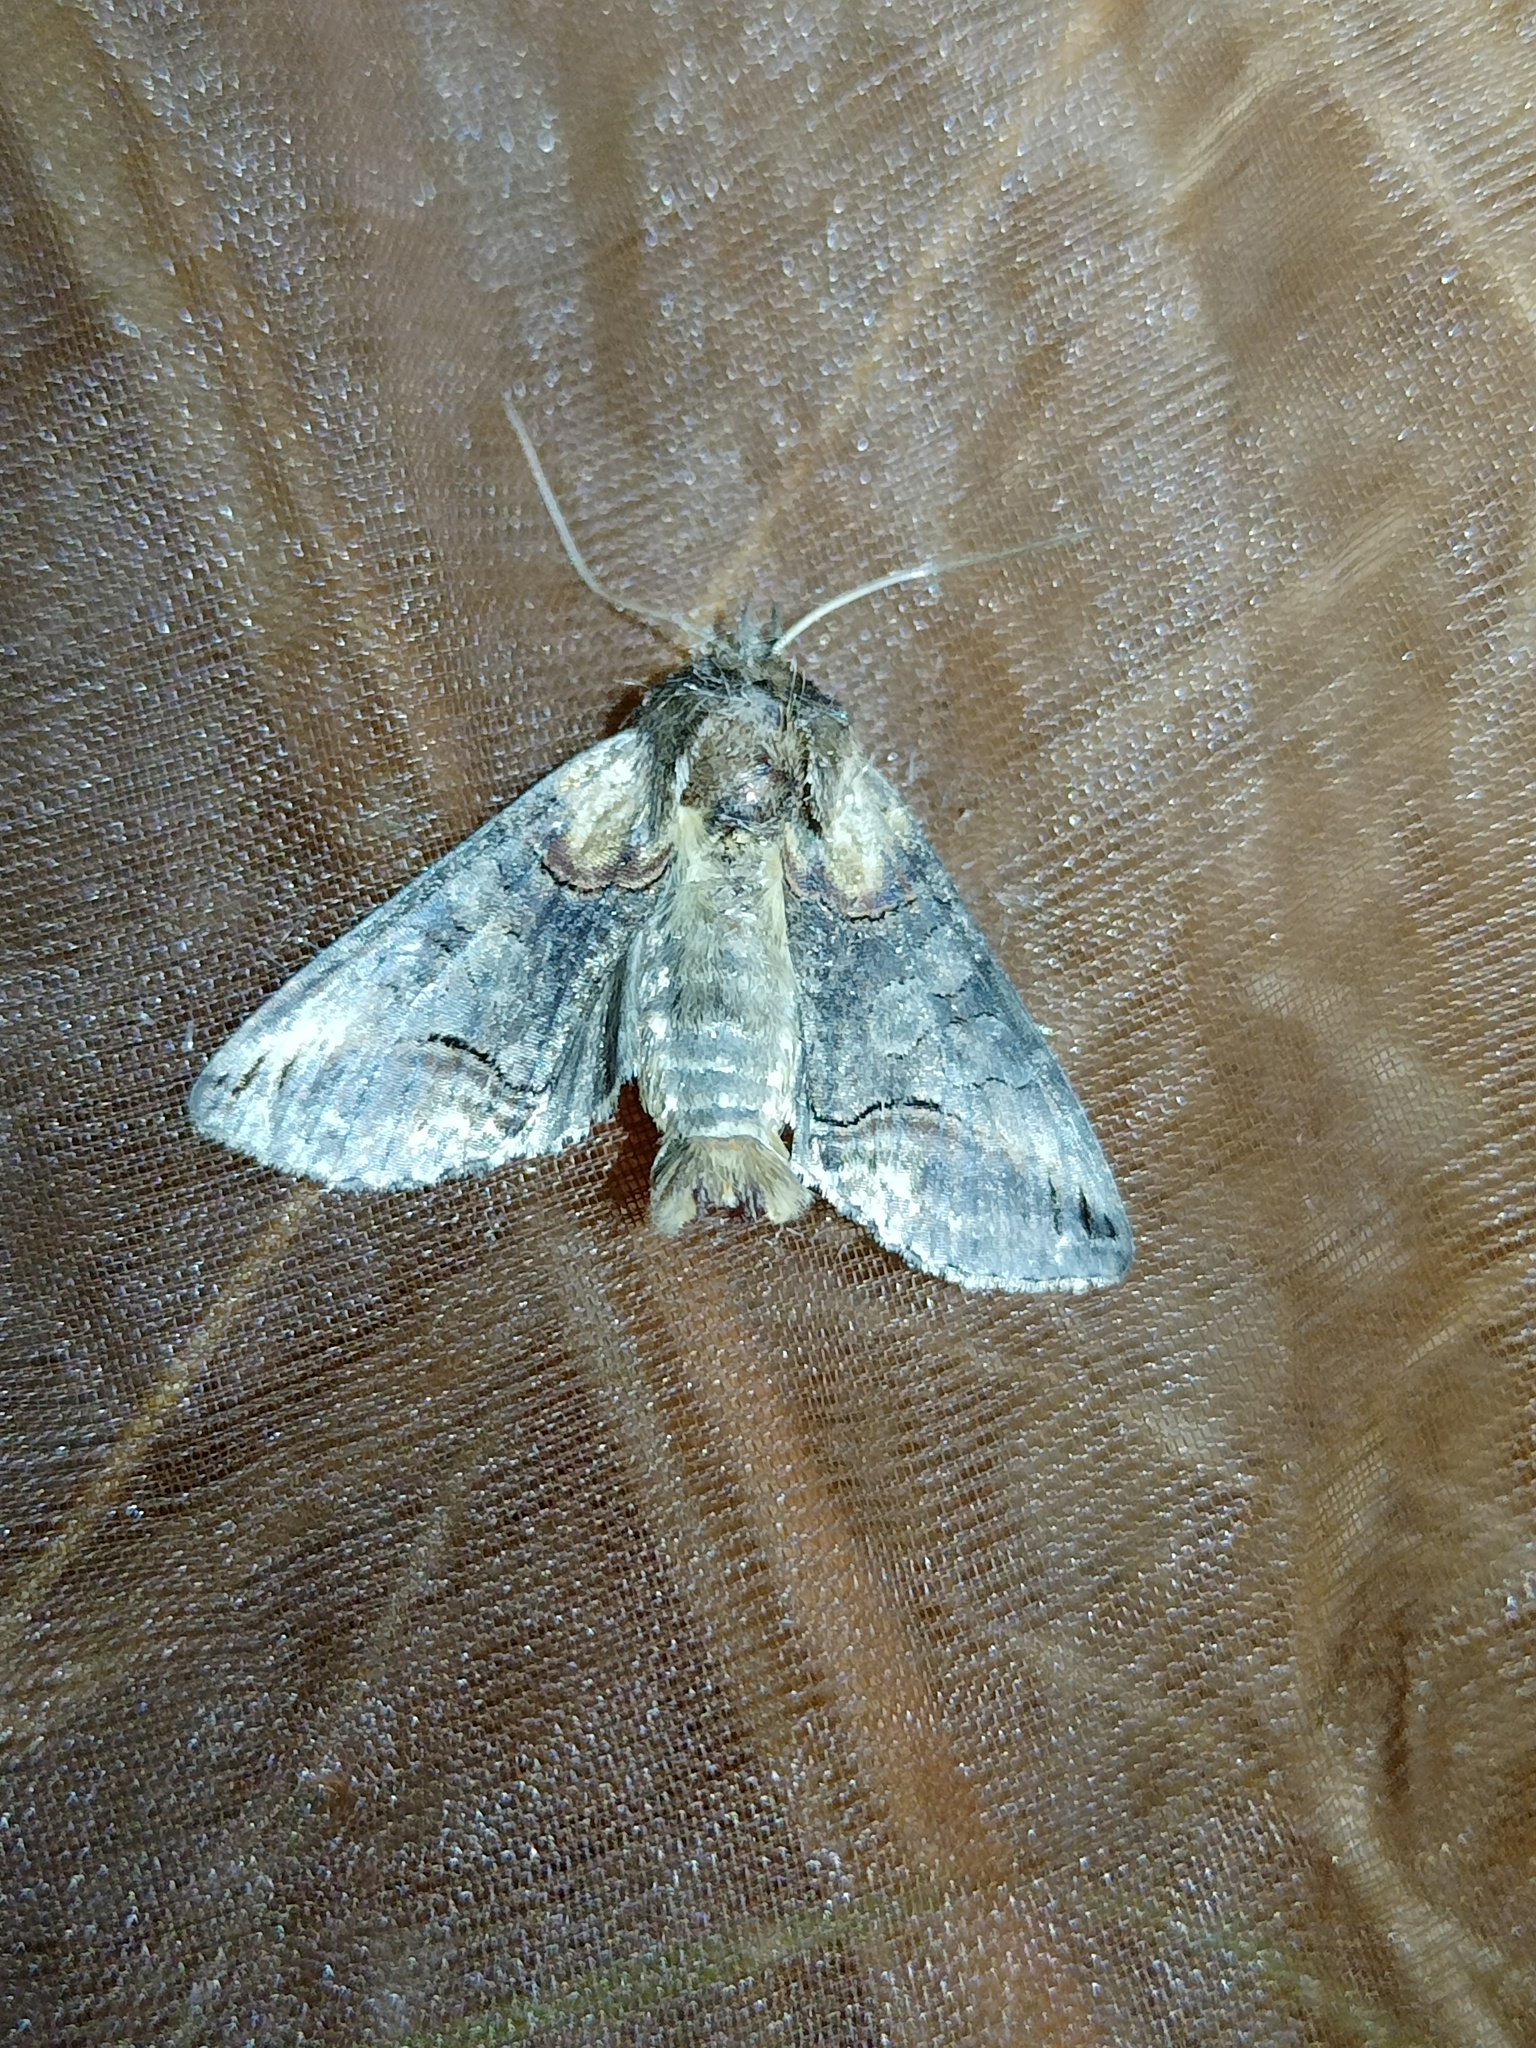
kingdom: Animalia
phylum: Arthropoda
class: Insecta
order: Lepidoptera
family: Noctuidae
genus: Abrostola
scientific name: Abrostola triplasia
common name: Dark spectacle
